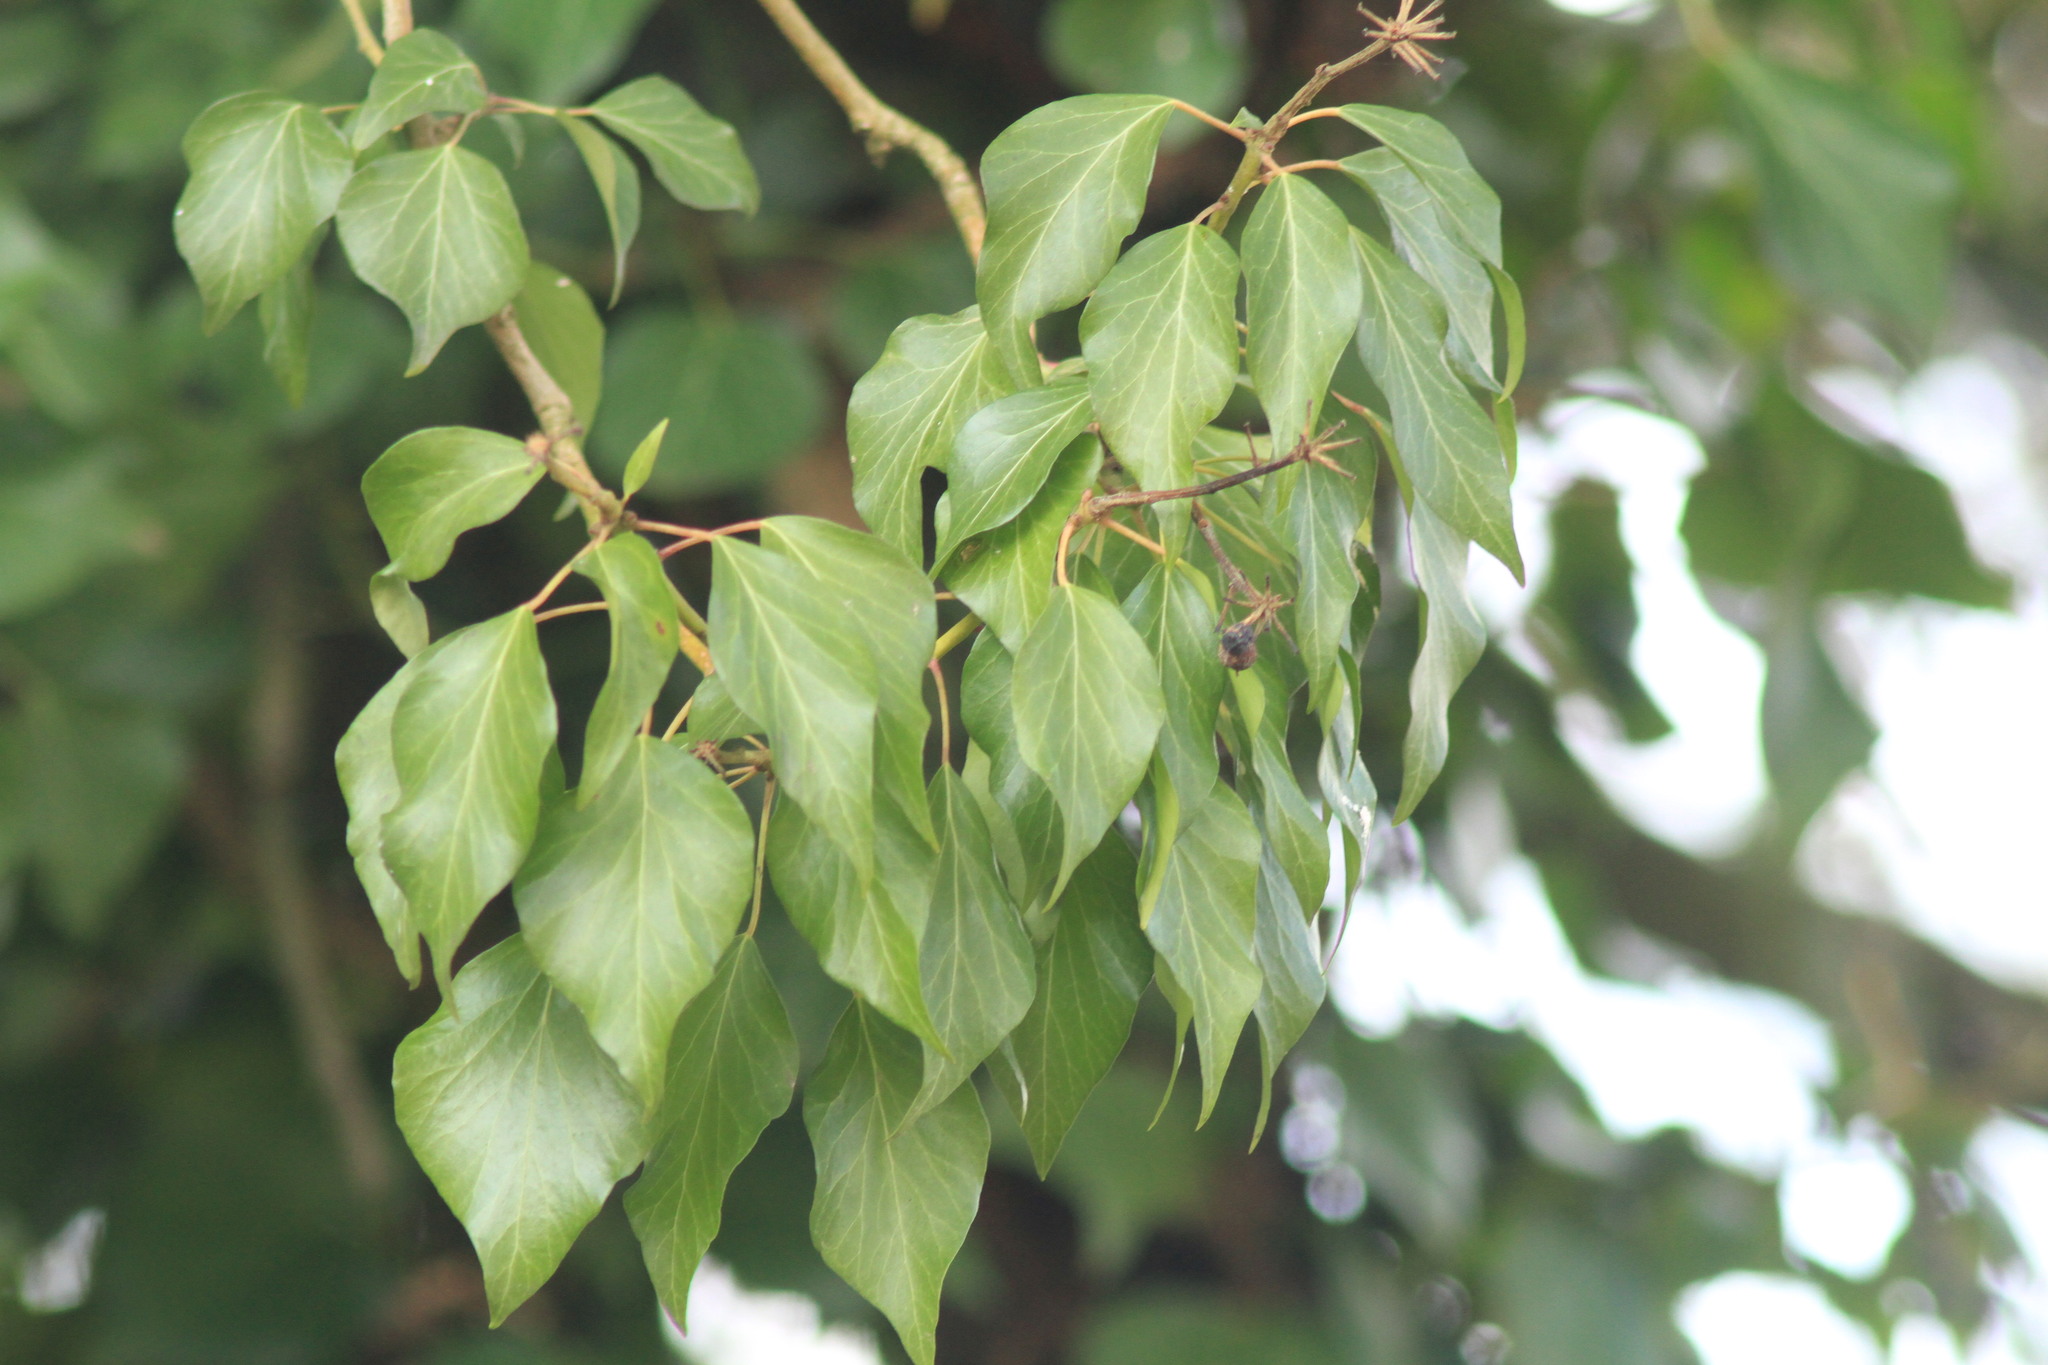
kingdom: Plantae
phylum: Tracheophyta
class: Magnoliopsida
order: Apiales
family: Araliaceae
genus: Hedera
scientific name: Hedera helix
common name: Ivy
